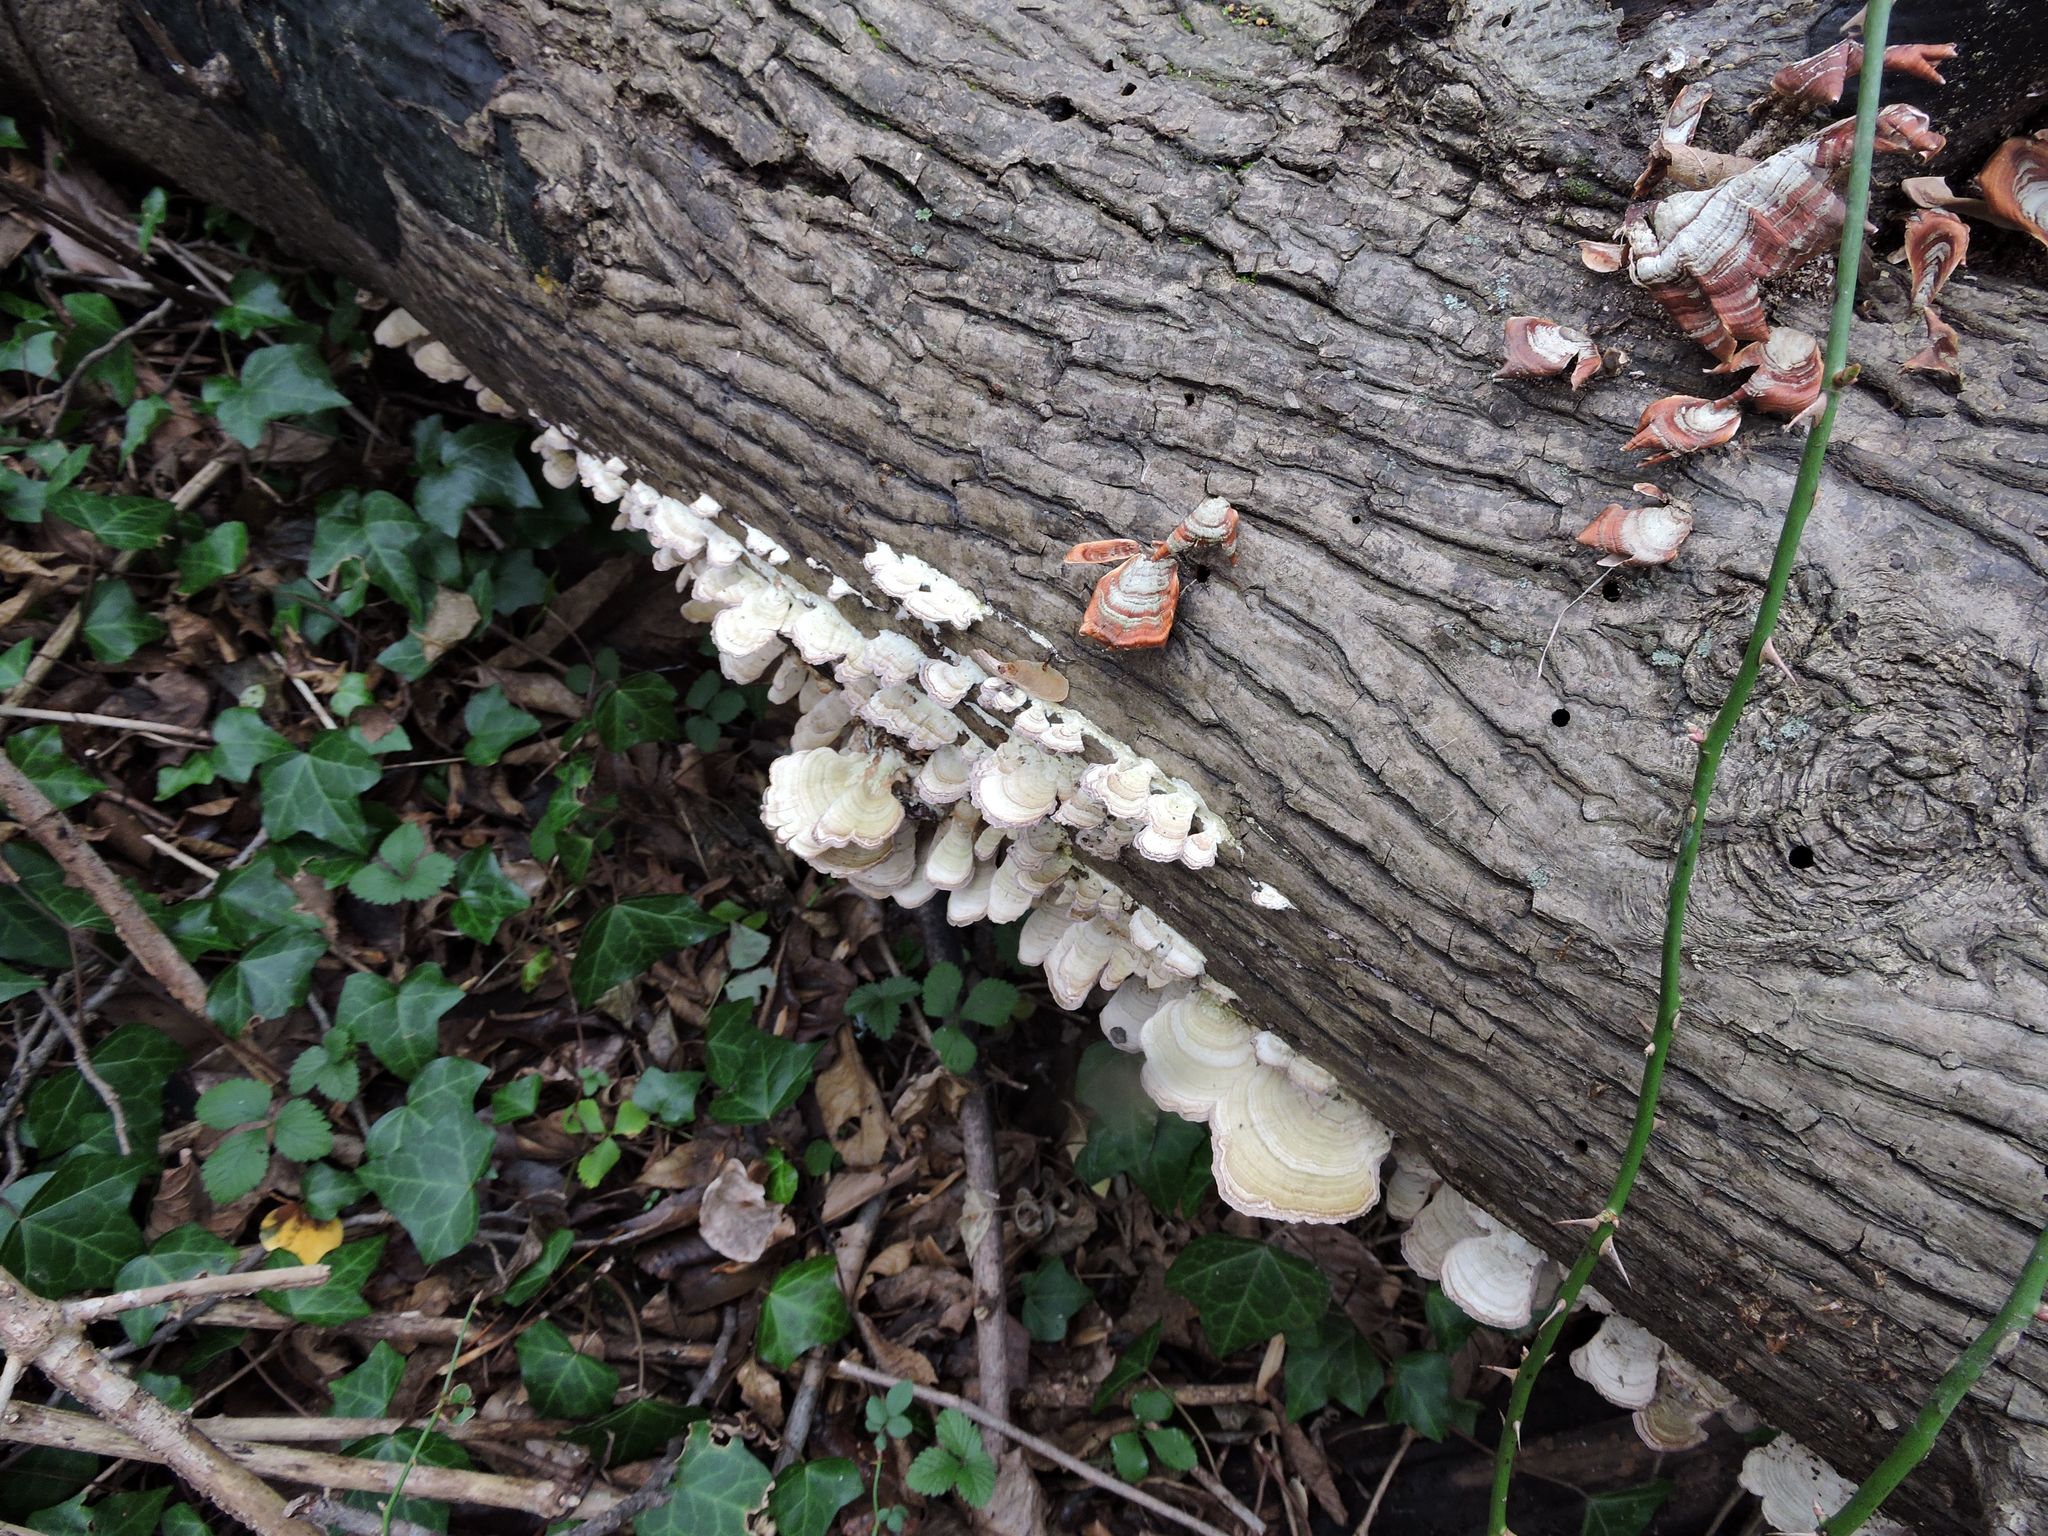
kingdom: Fungi
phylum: Basidiomycota
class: Agaricomycetes
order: Hymenochaetales
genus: Trichaptum
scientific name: Trichaptum biforme
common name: Violet-toothed polypore
